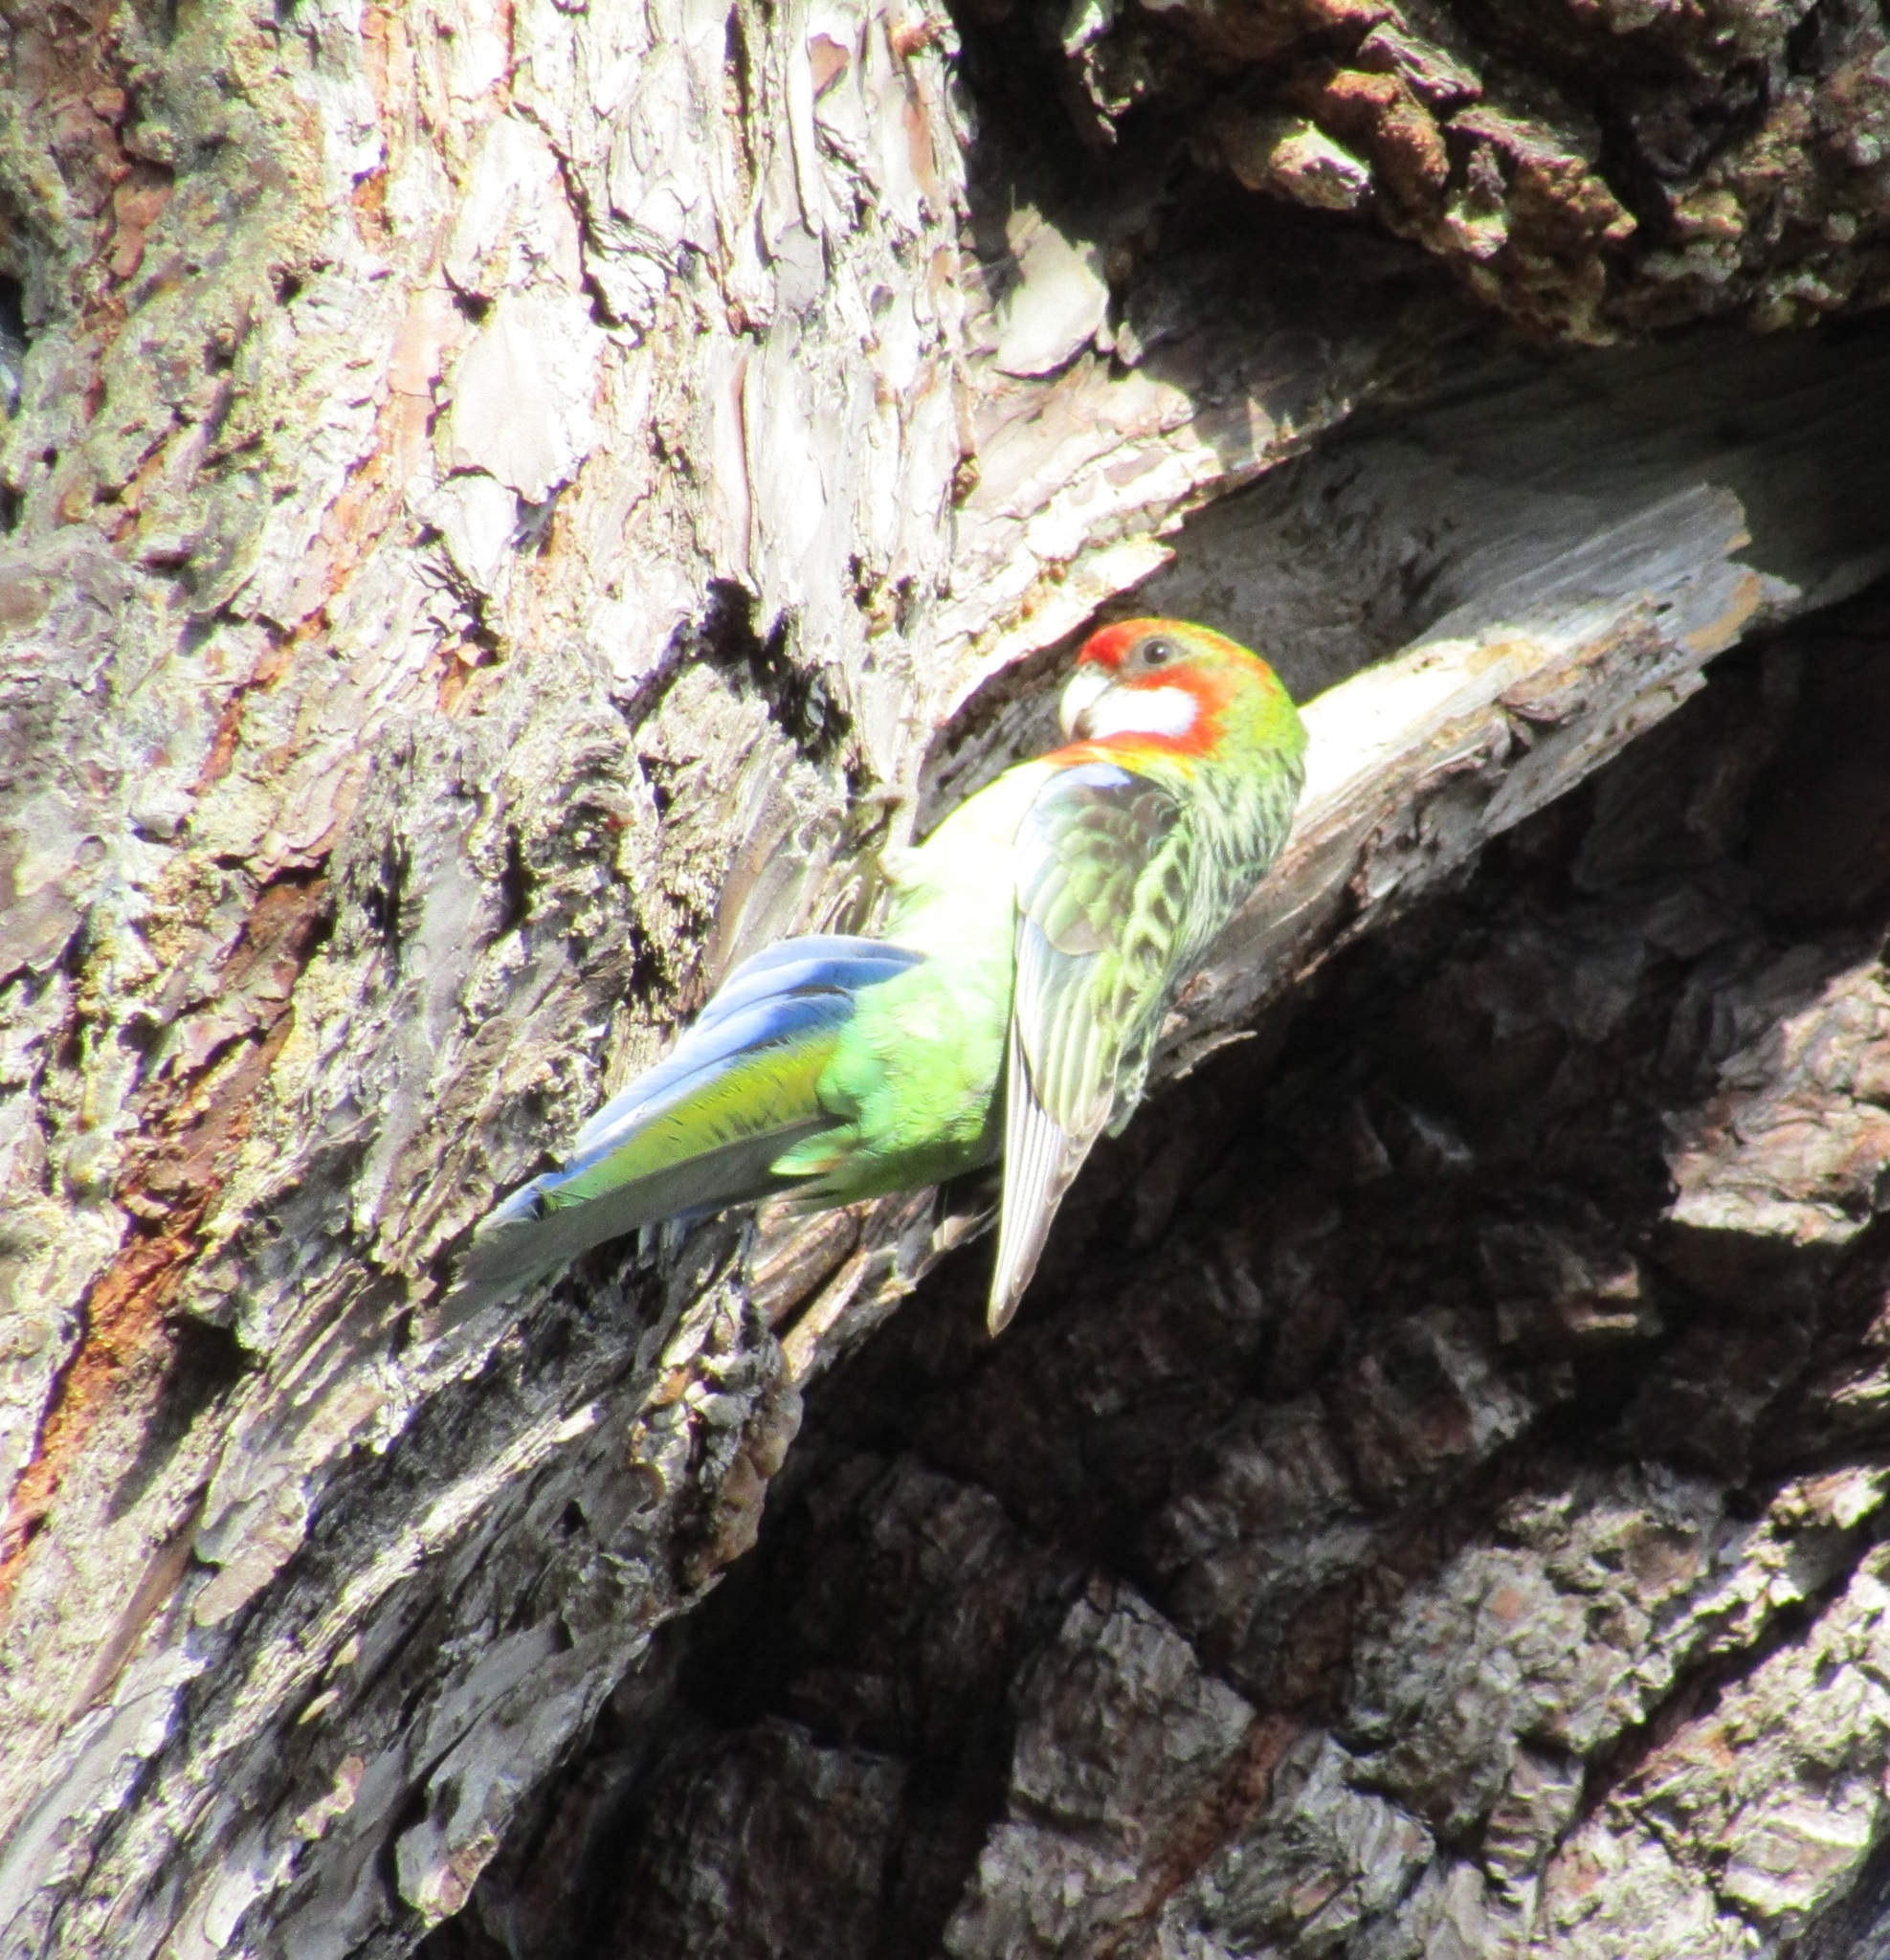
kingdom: Animalia
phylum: Chordata
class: Aves
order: Psittaciformes
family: Psittacidae
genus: Platycercus
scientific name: Platycercus eximius
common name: Eastern rosella
